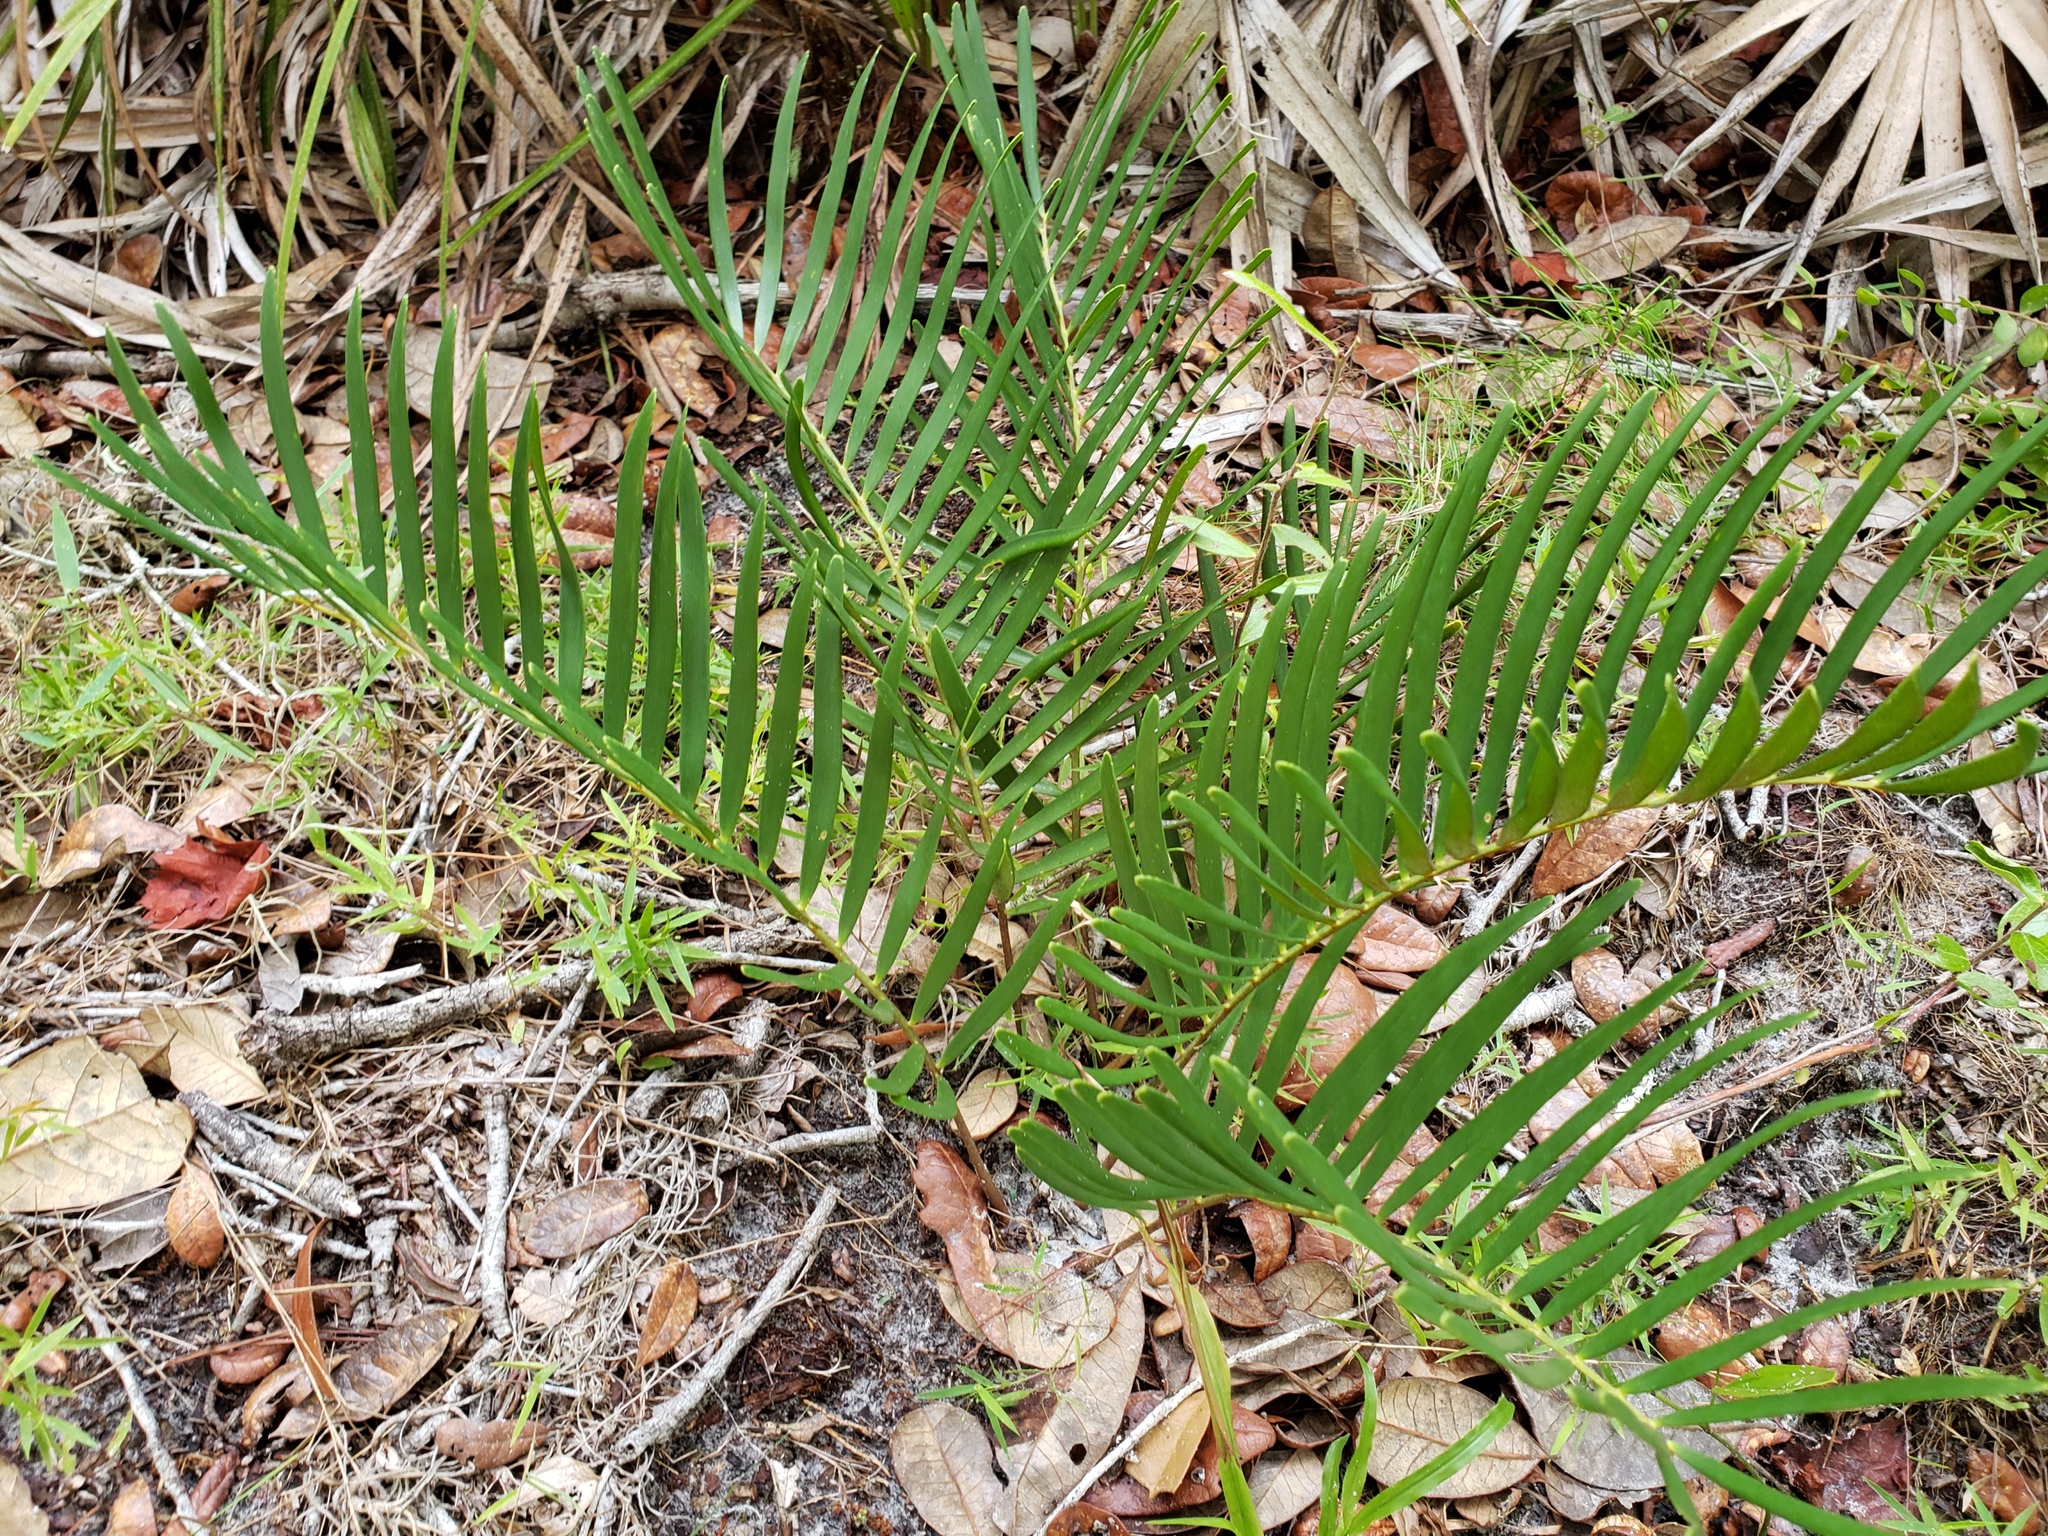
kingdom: Plantae
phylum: Tracheophyta
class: Cycadopsida
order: Cycadales
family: Zamiaceae
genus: Zamia
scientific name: Zamia integrifolia
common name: Florida arrowroot
